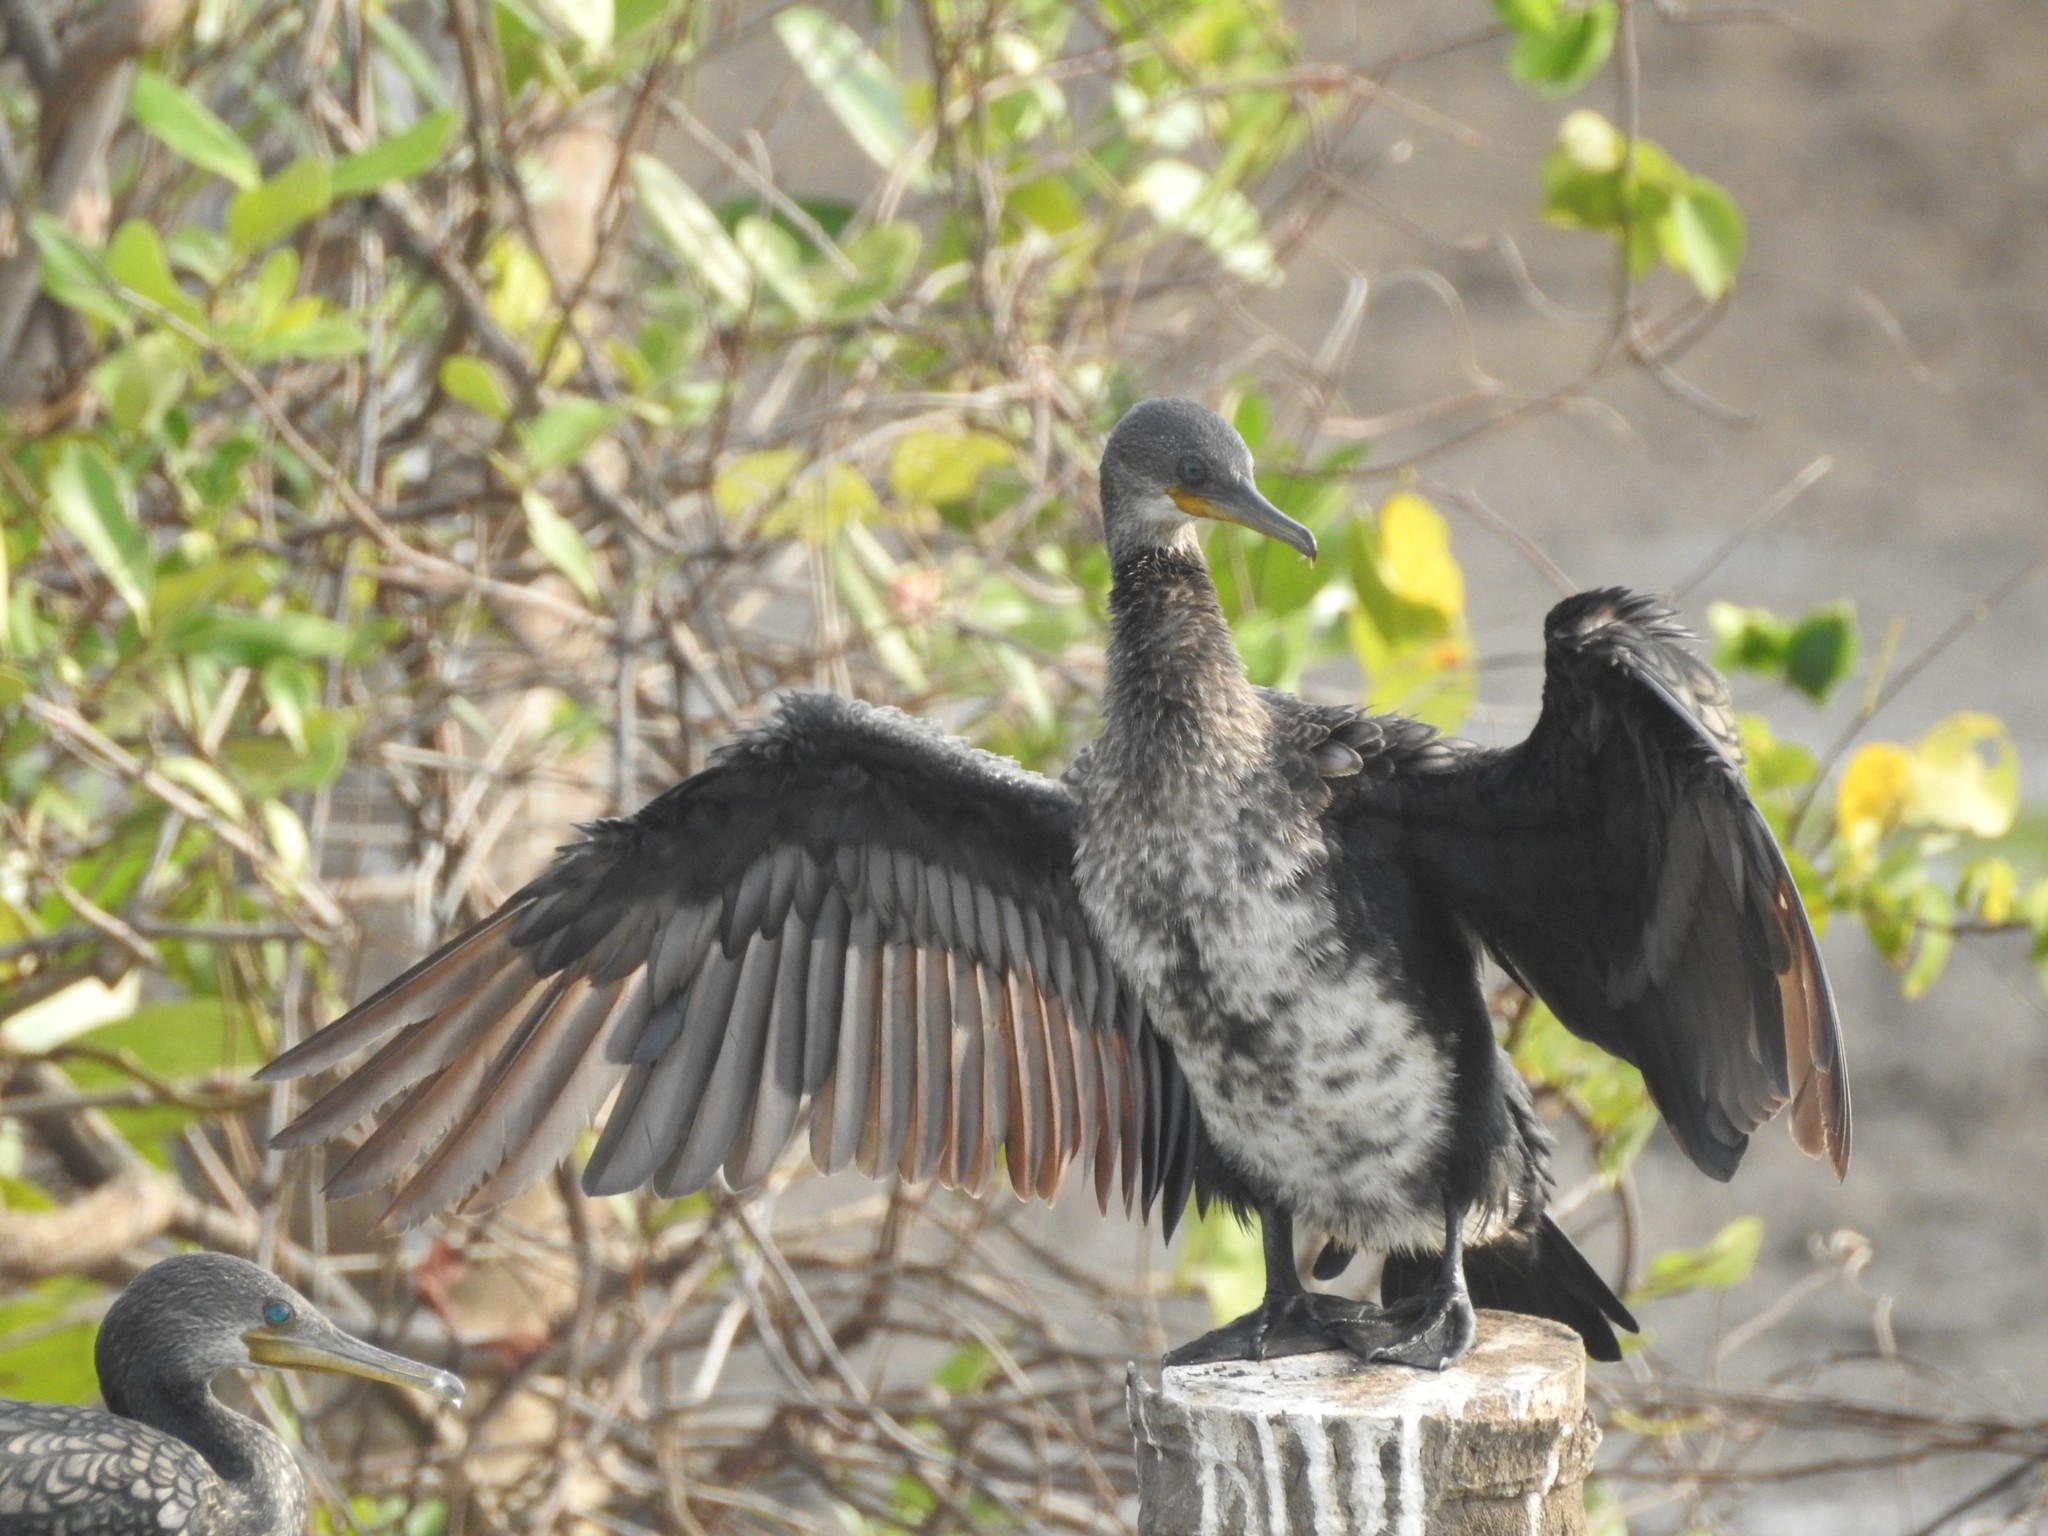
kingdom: Animalia
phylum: Chordata
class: Aves
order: Suliformes
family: Phalacrocoracidae
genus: Phalacrocorax
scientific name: Phalacrocorax fuscicollis
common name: Indian cormorant
